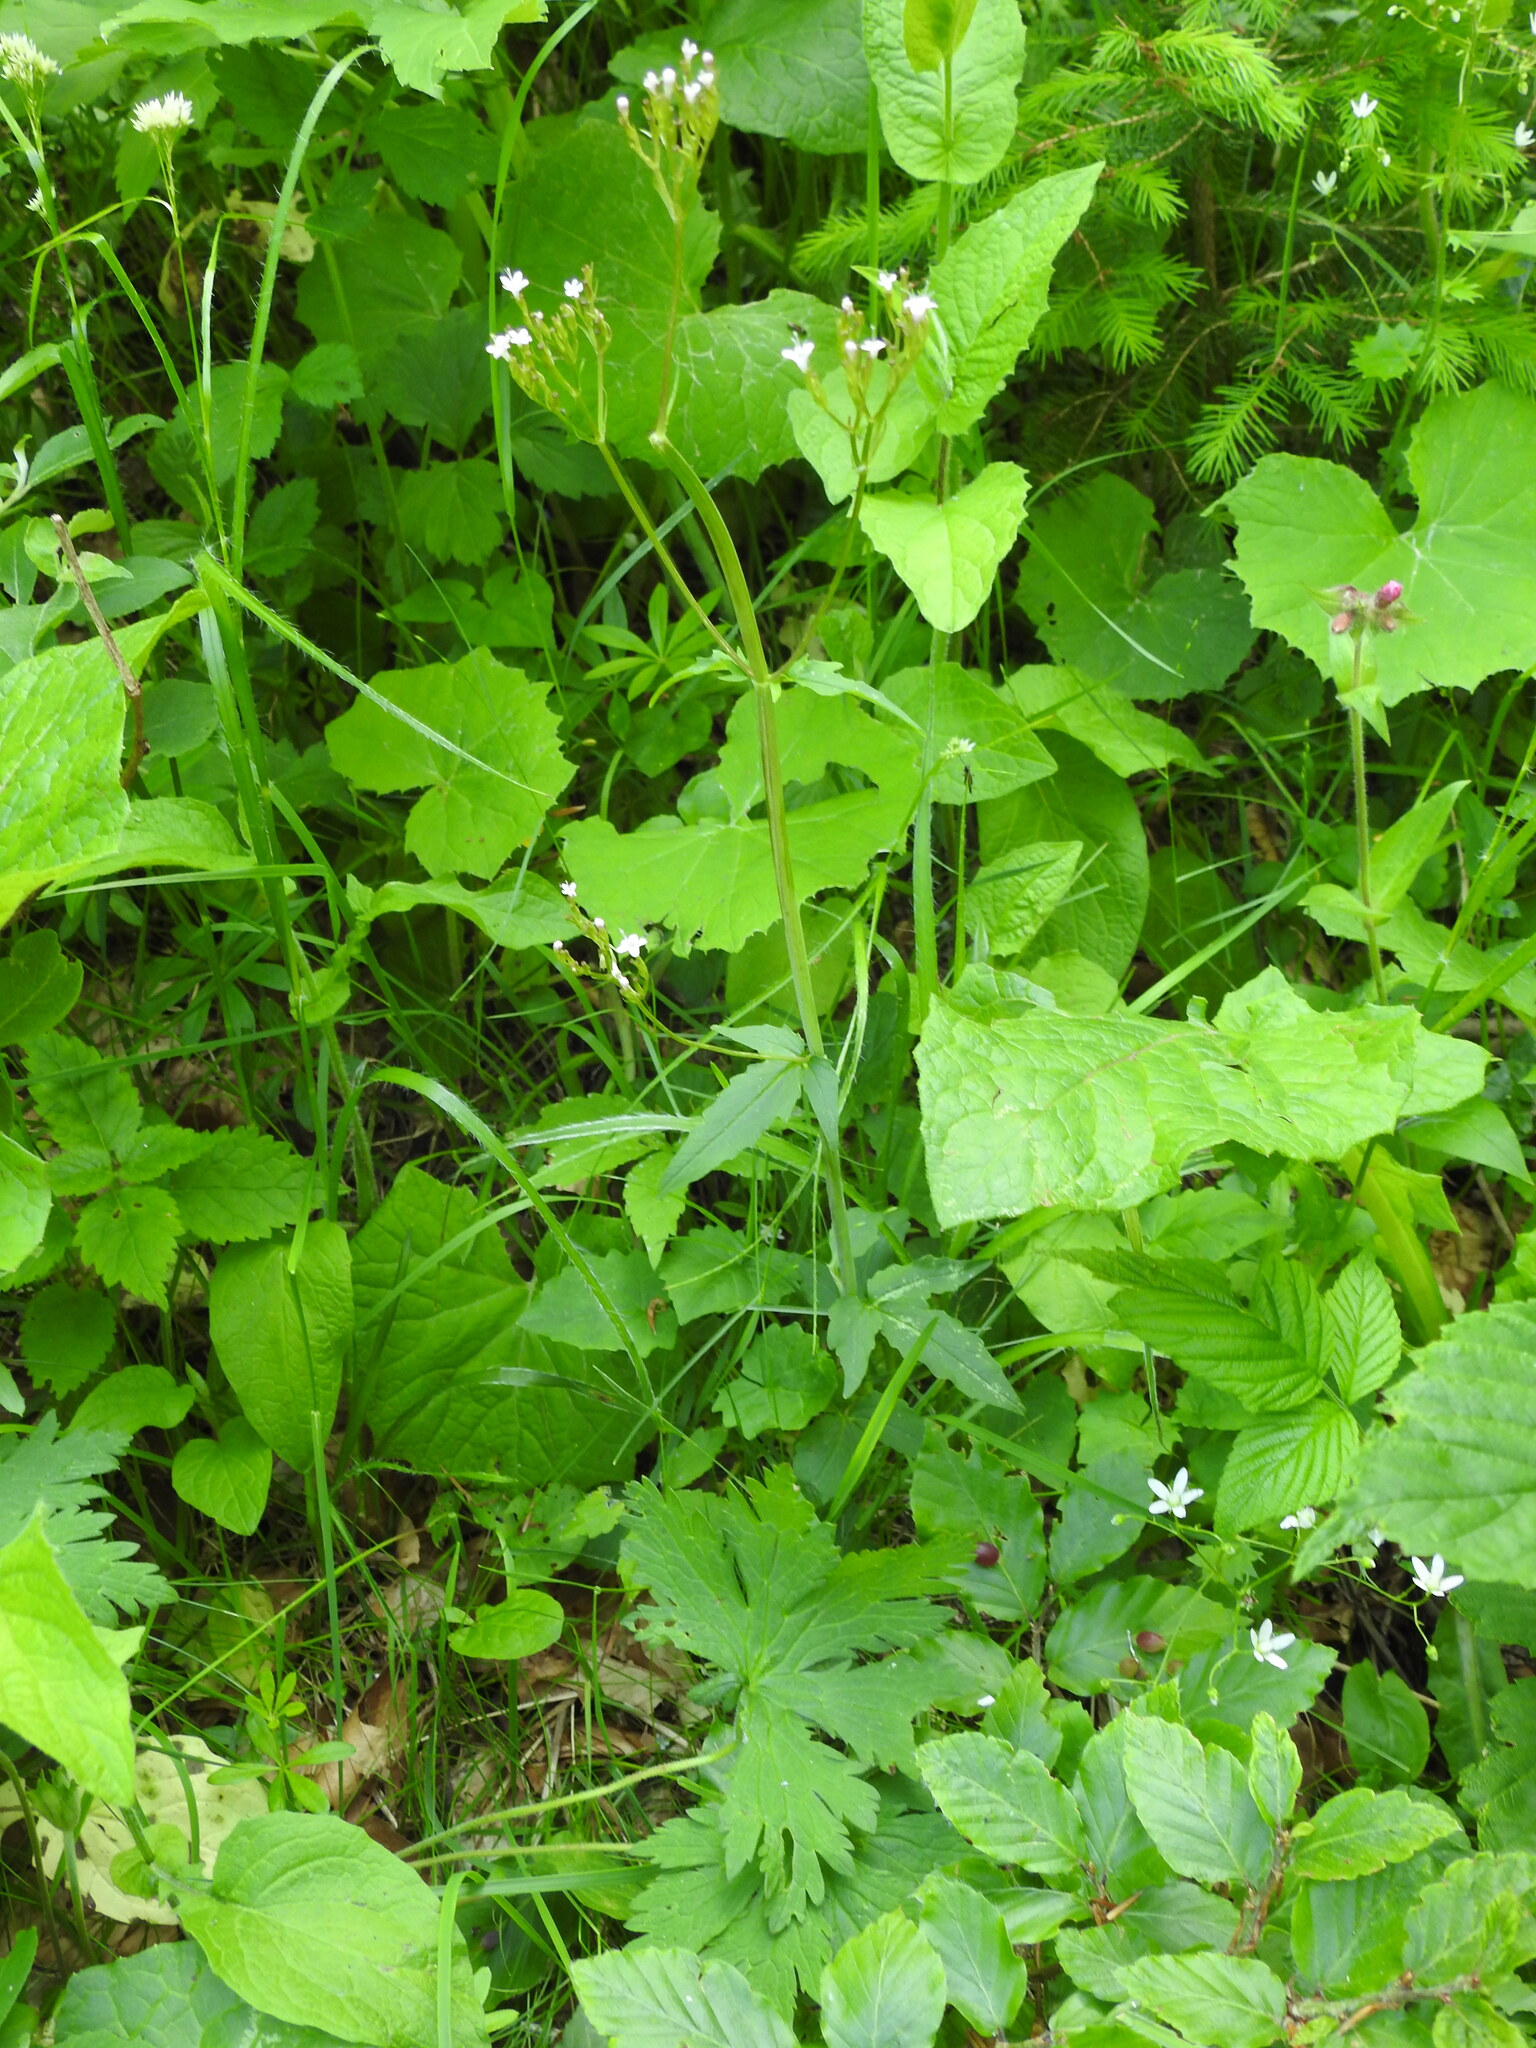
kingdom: Plantae
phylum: Tracheophyta
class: Magnoliopsida
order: Dipsacales
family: Caprifoliaceae
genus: Valeriana
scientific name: Valeriana tripteris
